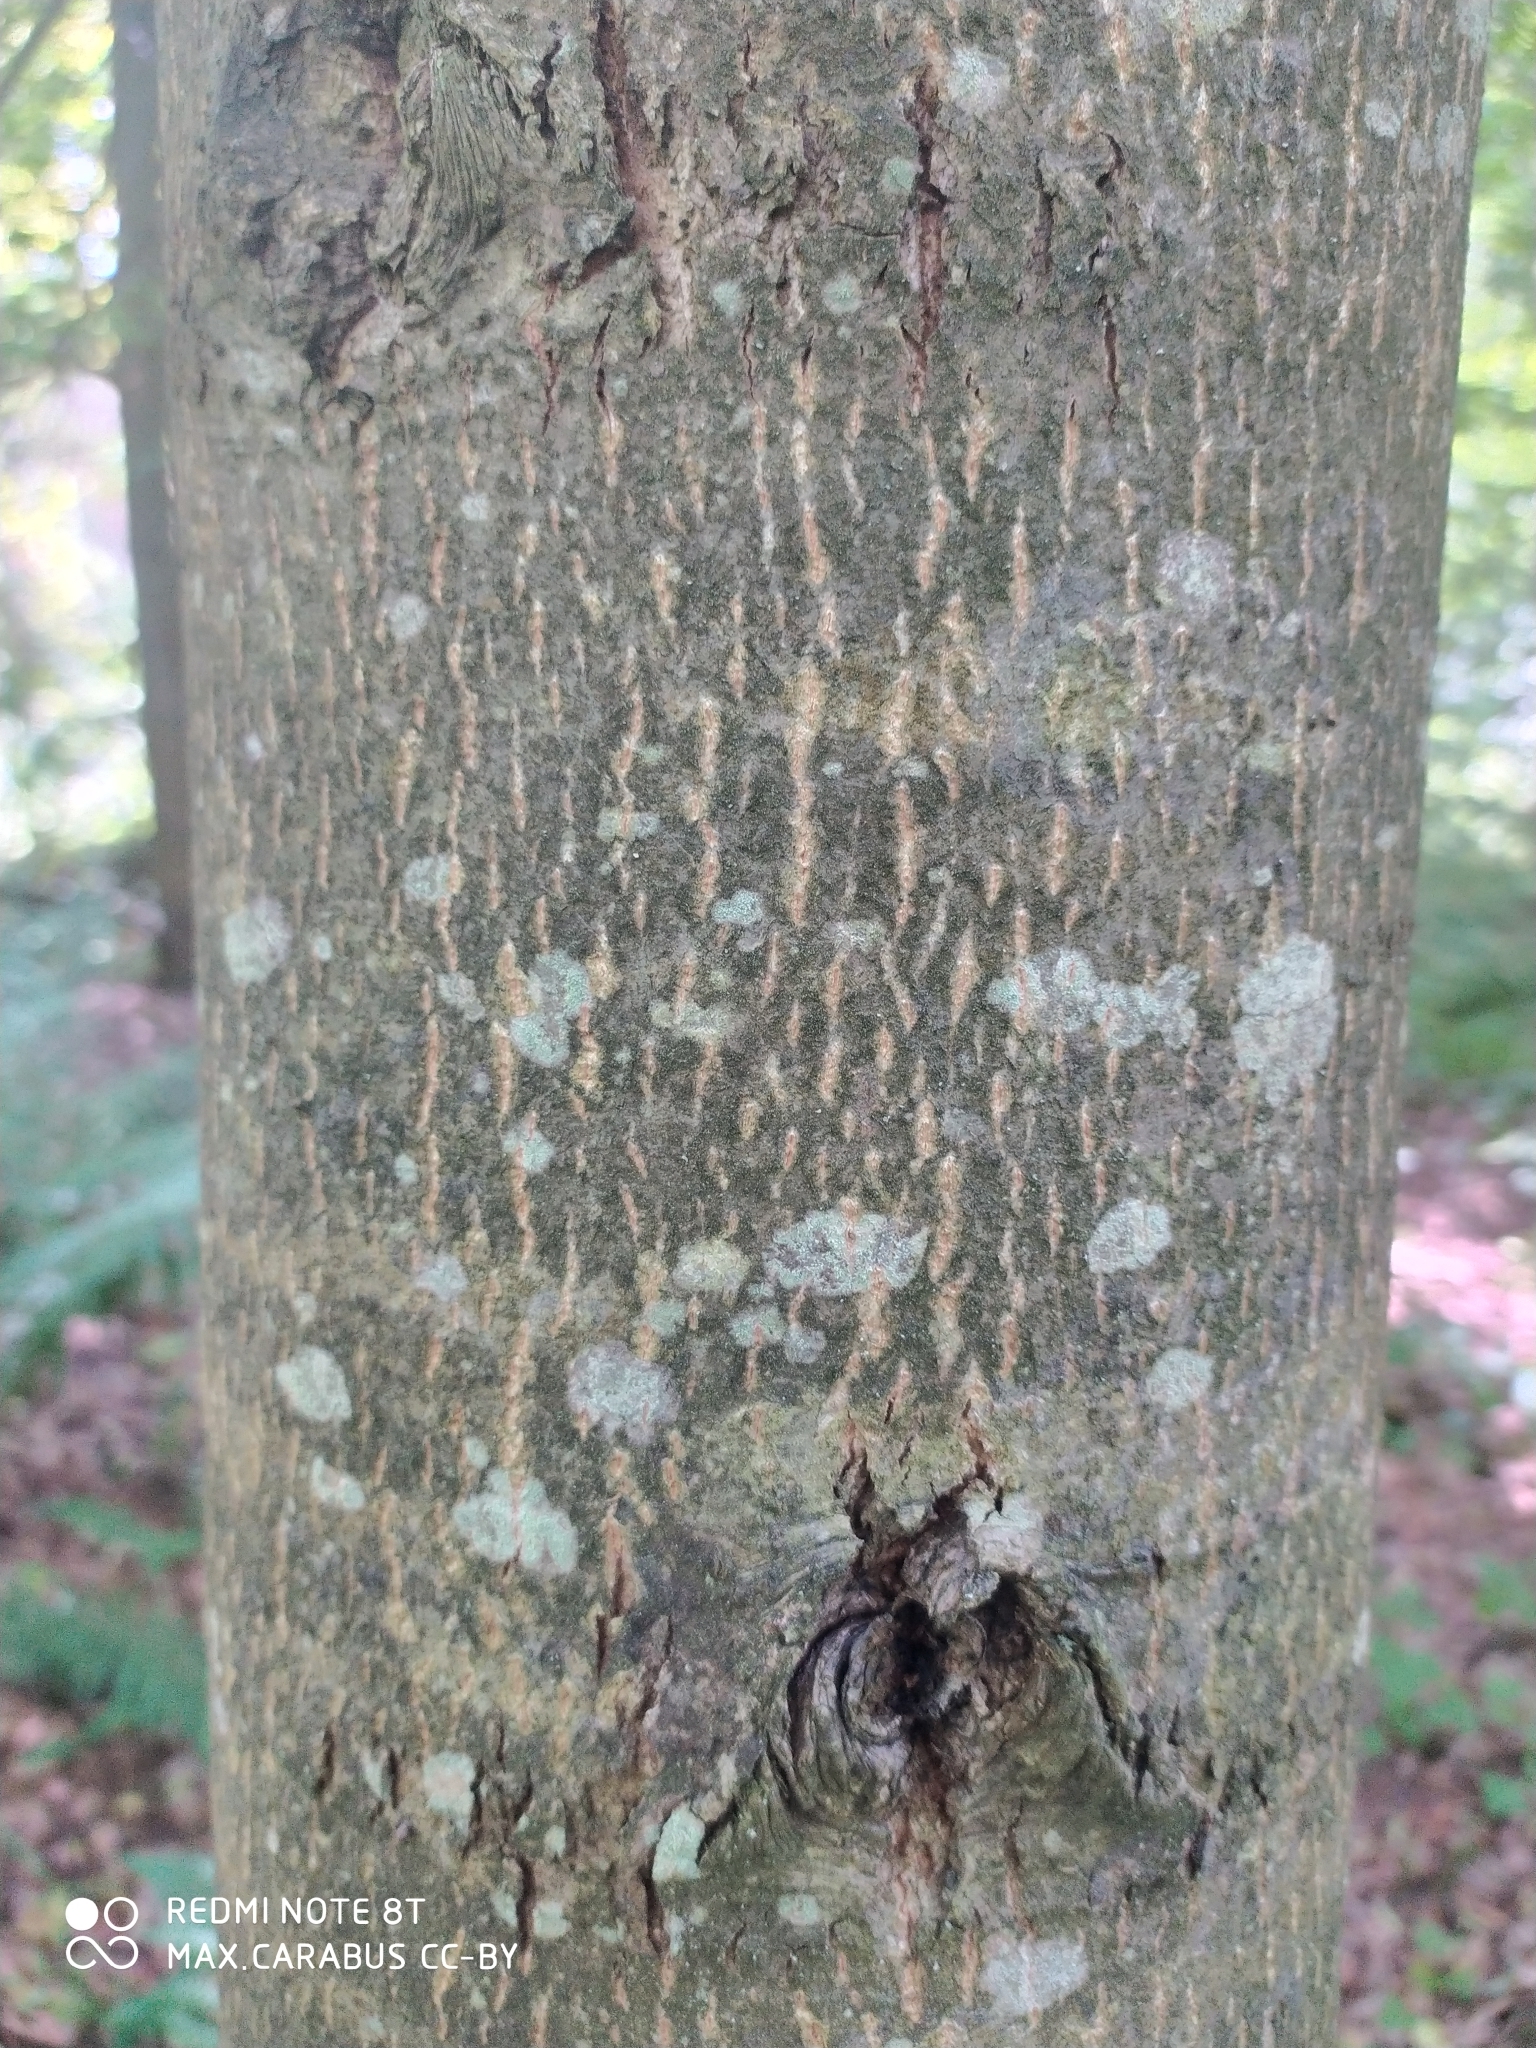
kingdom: Plantae
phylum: Tracheophyta
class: Magnoliopsida
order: Malvales
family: Malvaceae
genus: Tilia
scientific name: Tilia cordata
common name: Small-leaved lime
